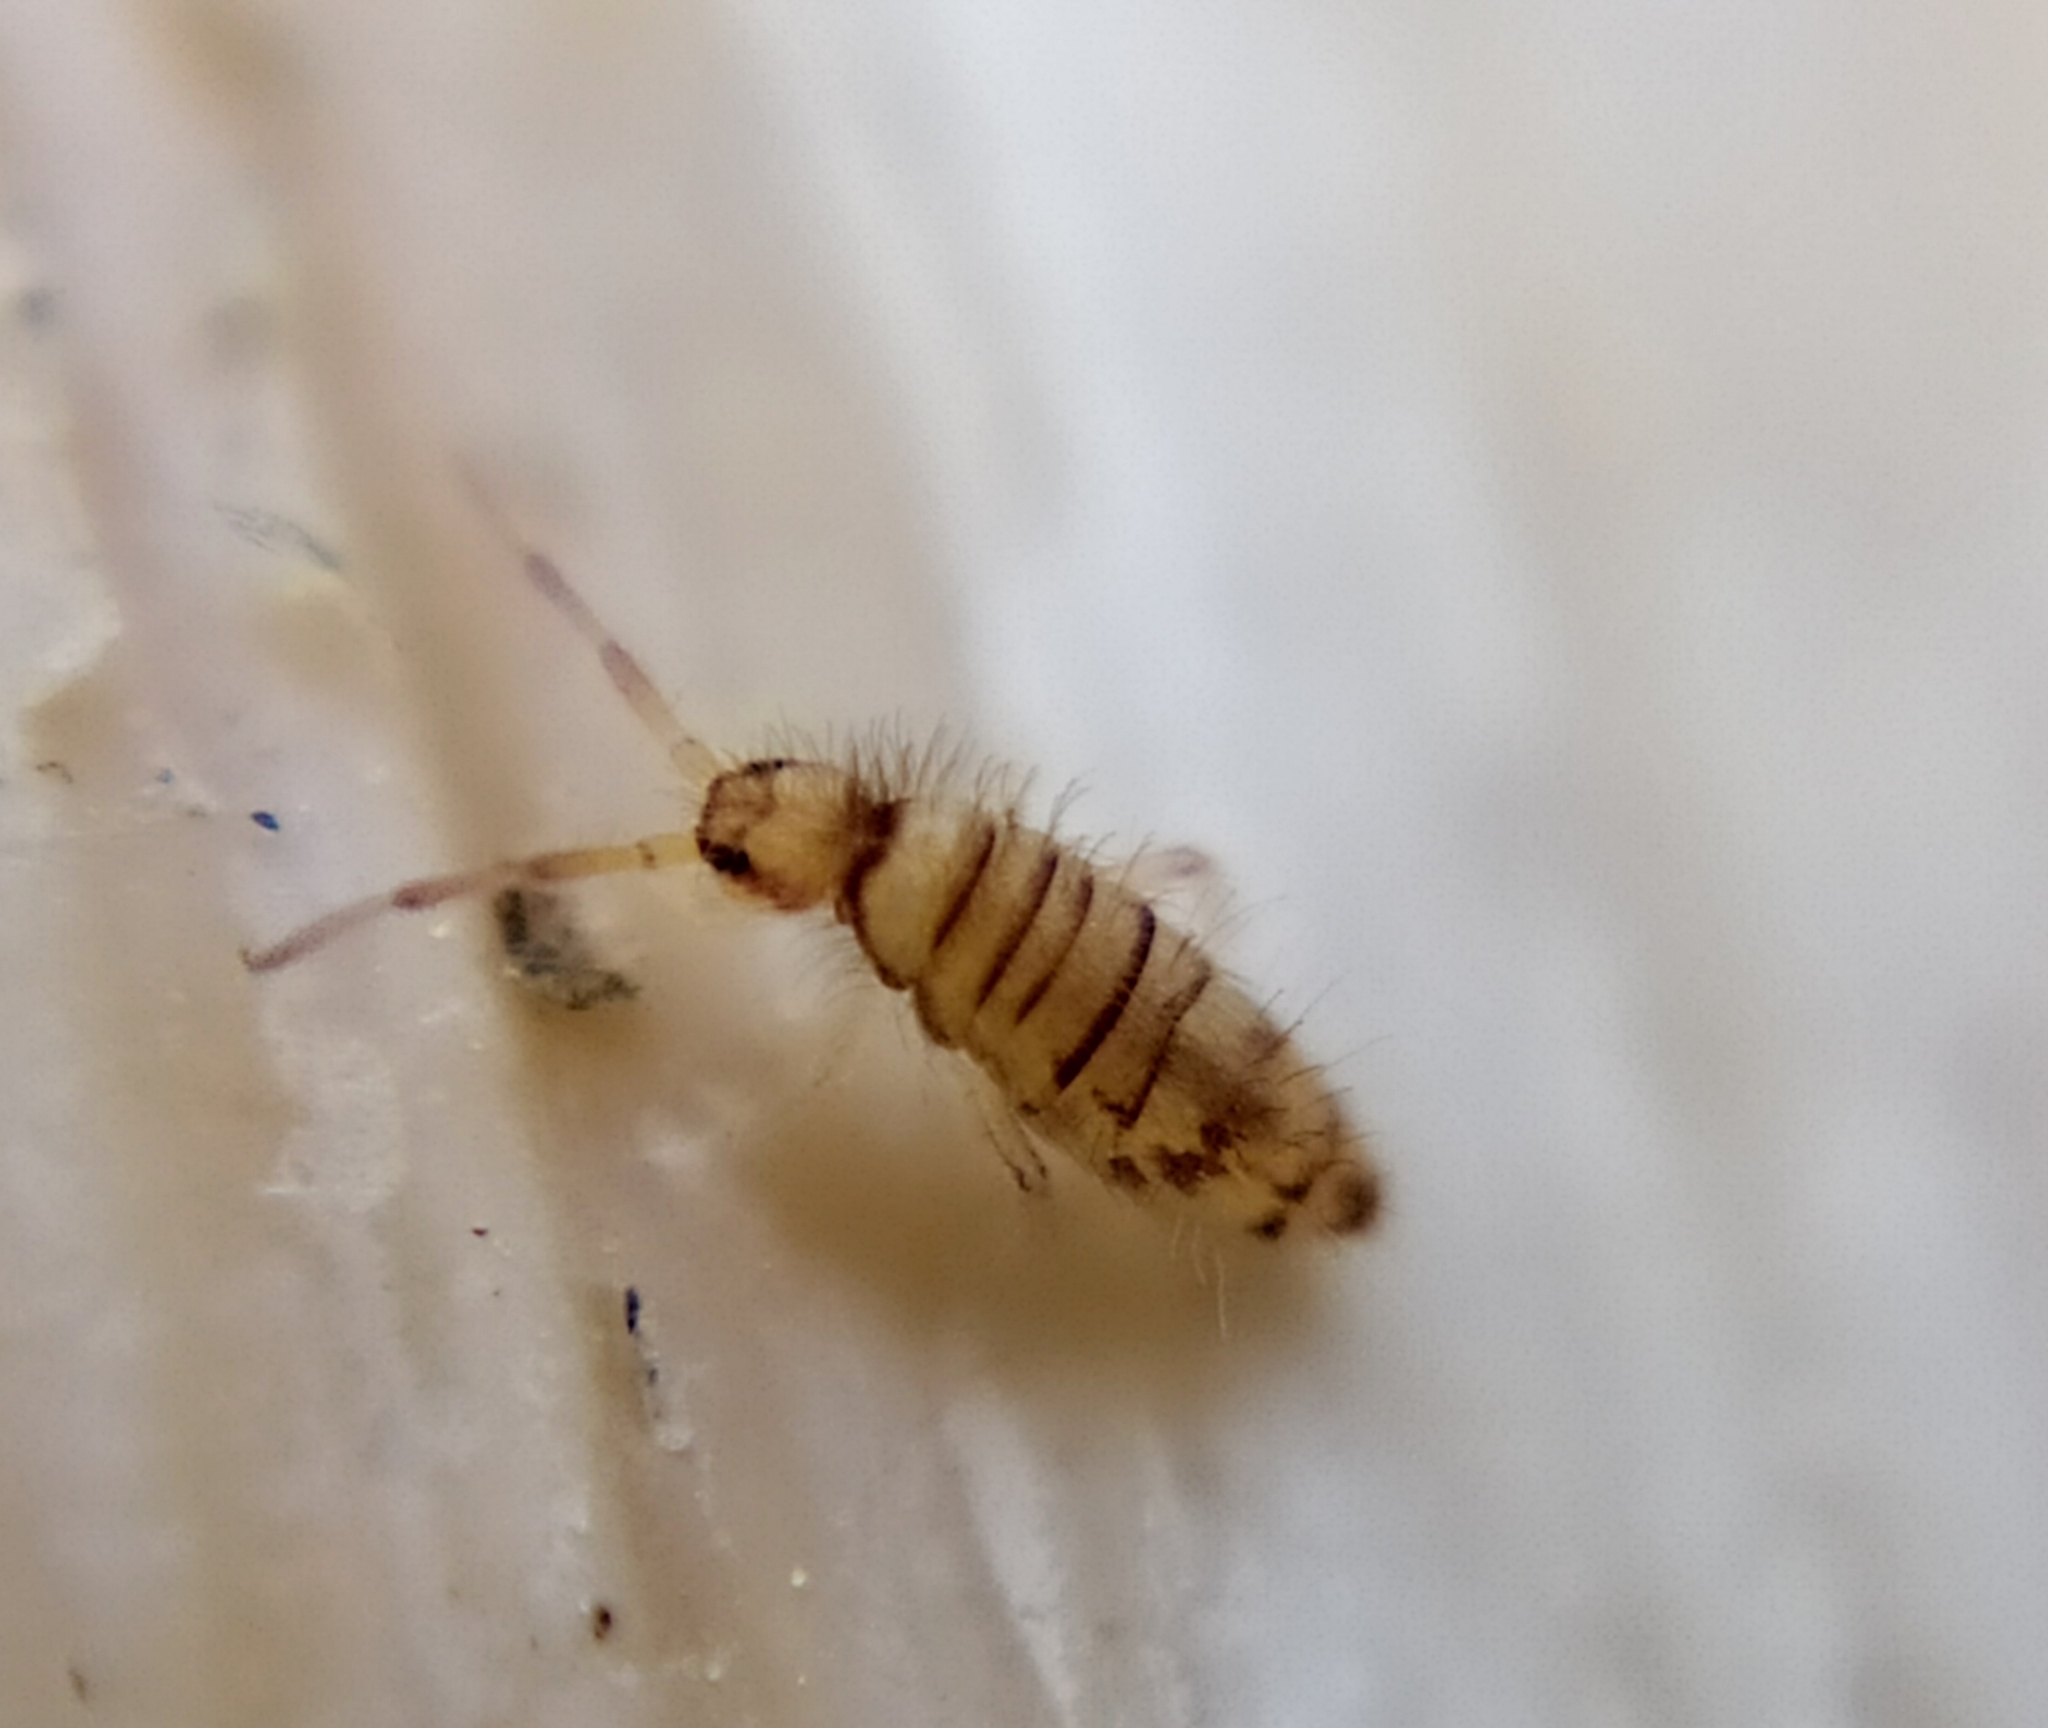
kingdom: Animalia
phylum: Arthropoda
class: Collembola
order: Entomobryomorpha
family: Entomobryidae
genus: Entomobrya
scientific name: Entomobrya nigrocincta
